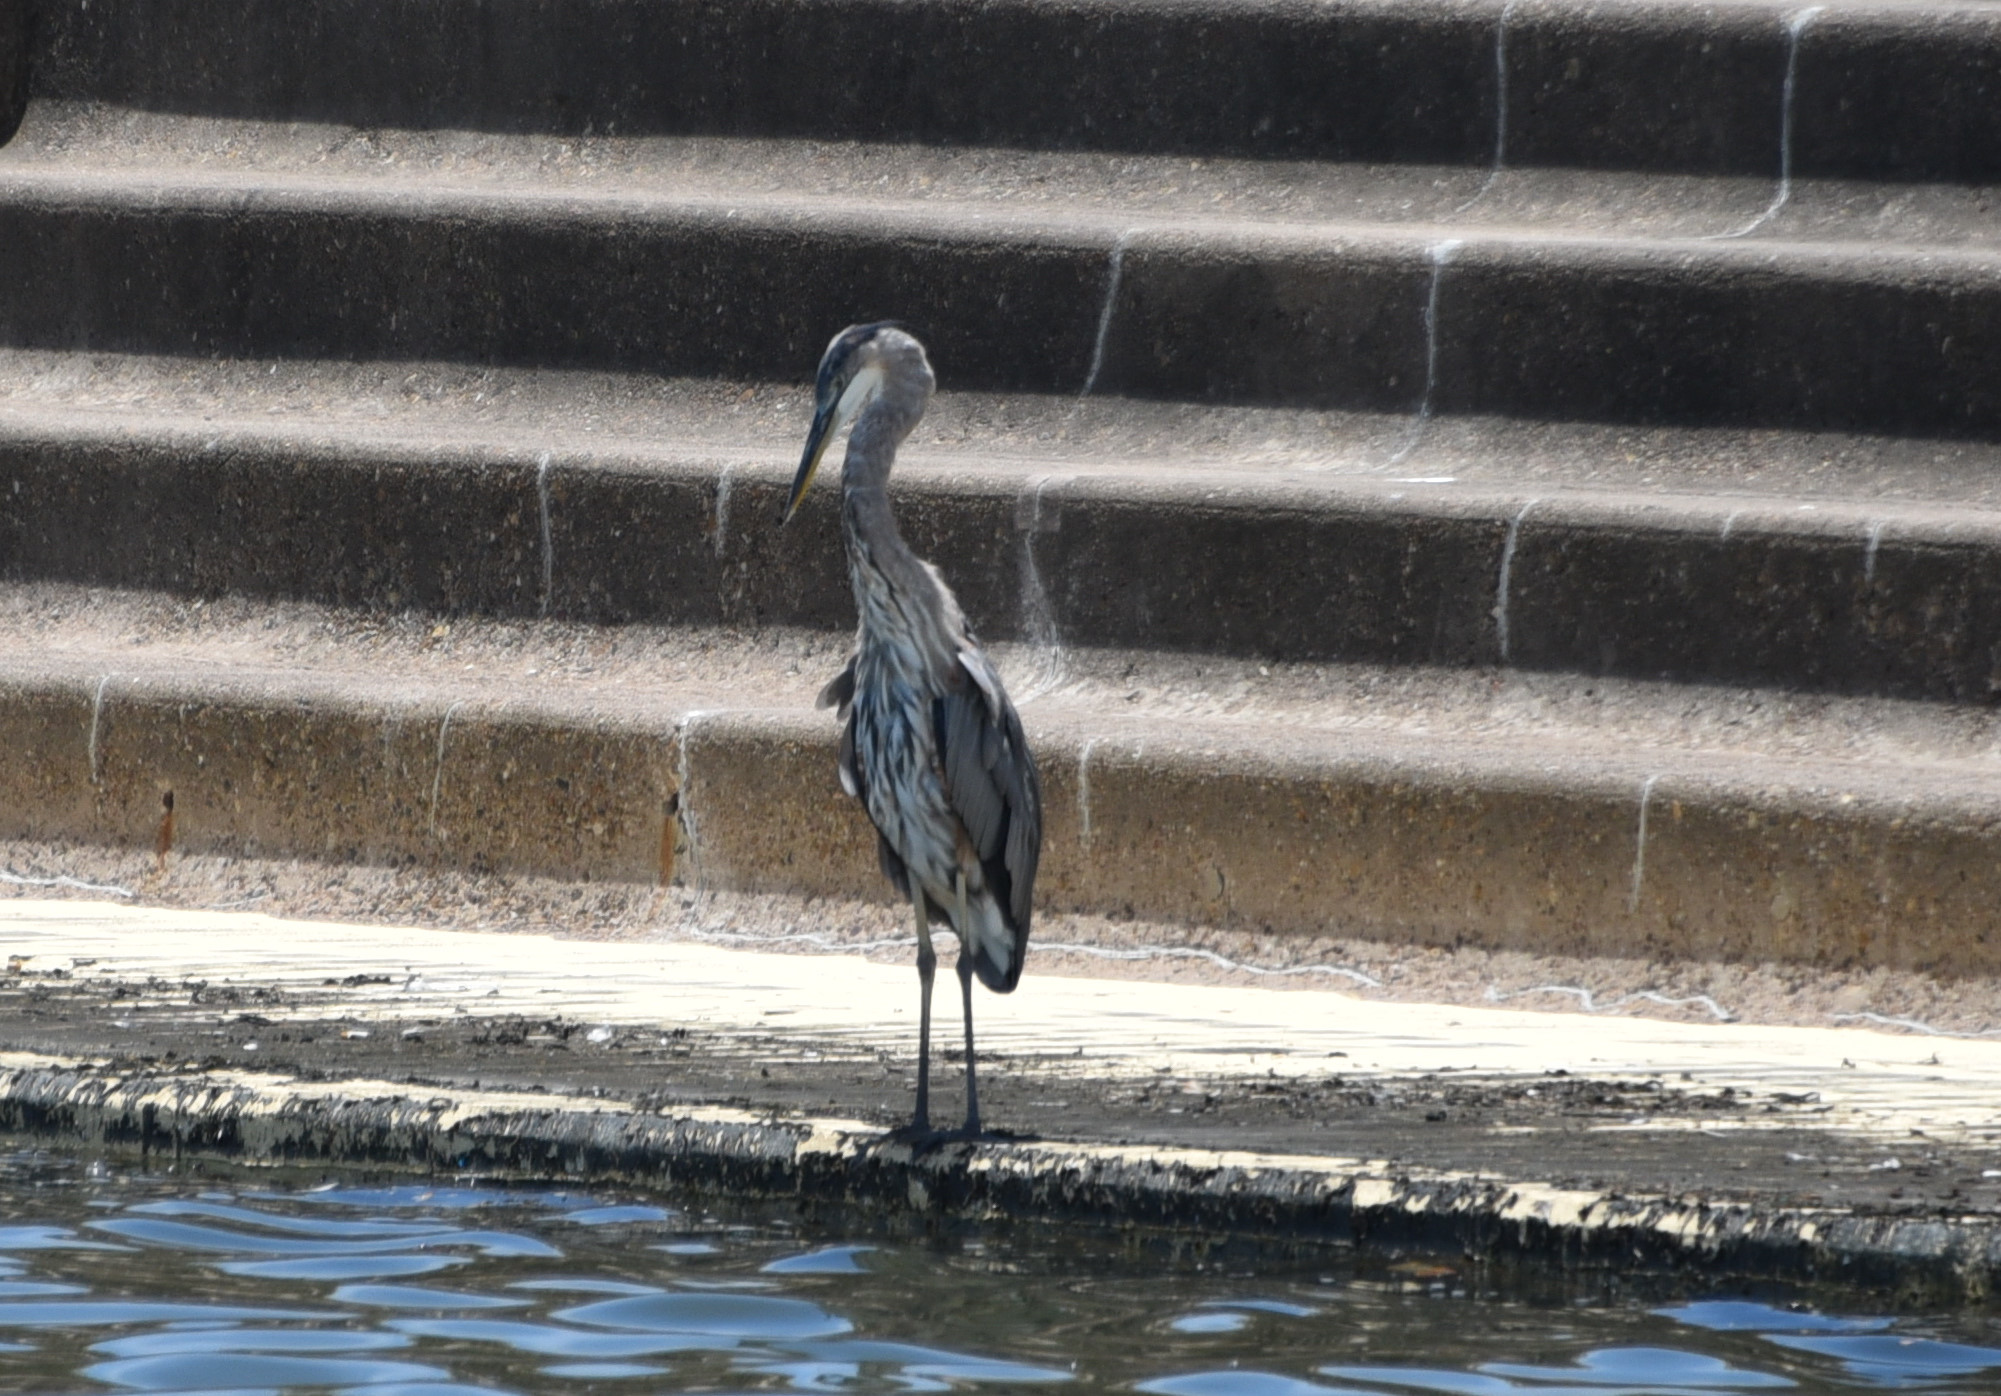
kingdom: Animalia
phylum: Chordata
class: Aves
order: Pelecaniformes
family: Ardeidae
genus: Ardea
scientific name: Ardea herodias
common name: Great blue heron
